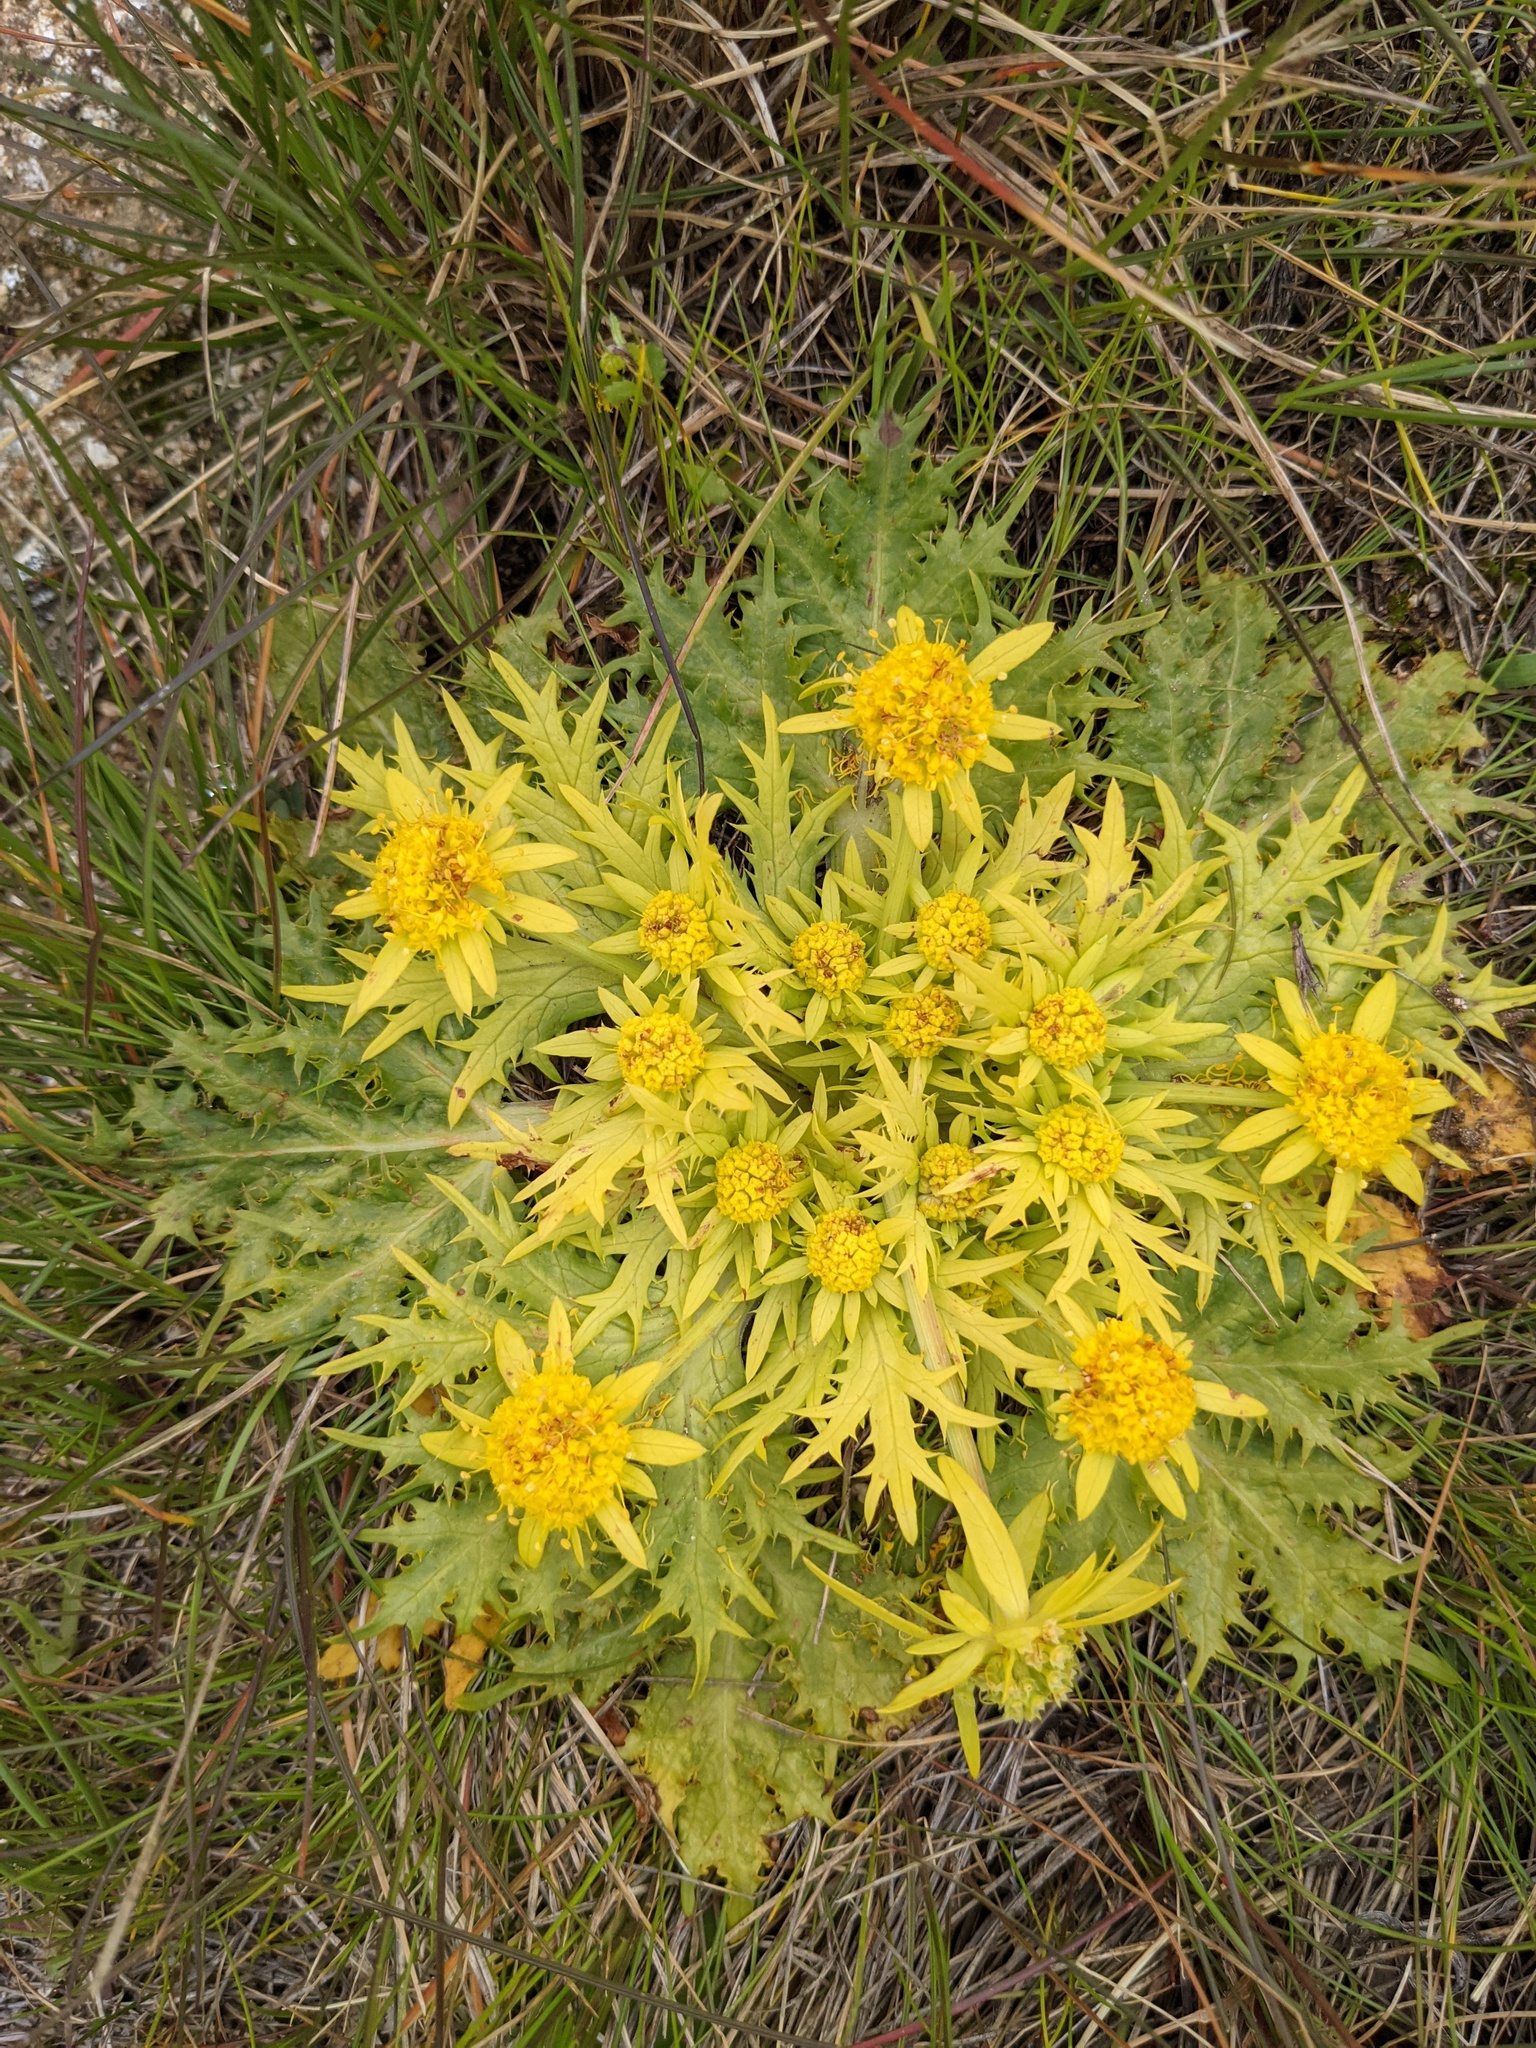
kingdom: Plantae
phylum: Tracheophyta
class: Magnoliopsida
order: Apiales
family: Apiaceae
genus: Sanicula
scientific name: Sanicula arctopoides
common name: Footsteps-of-spring
